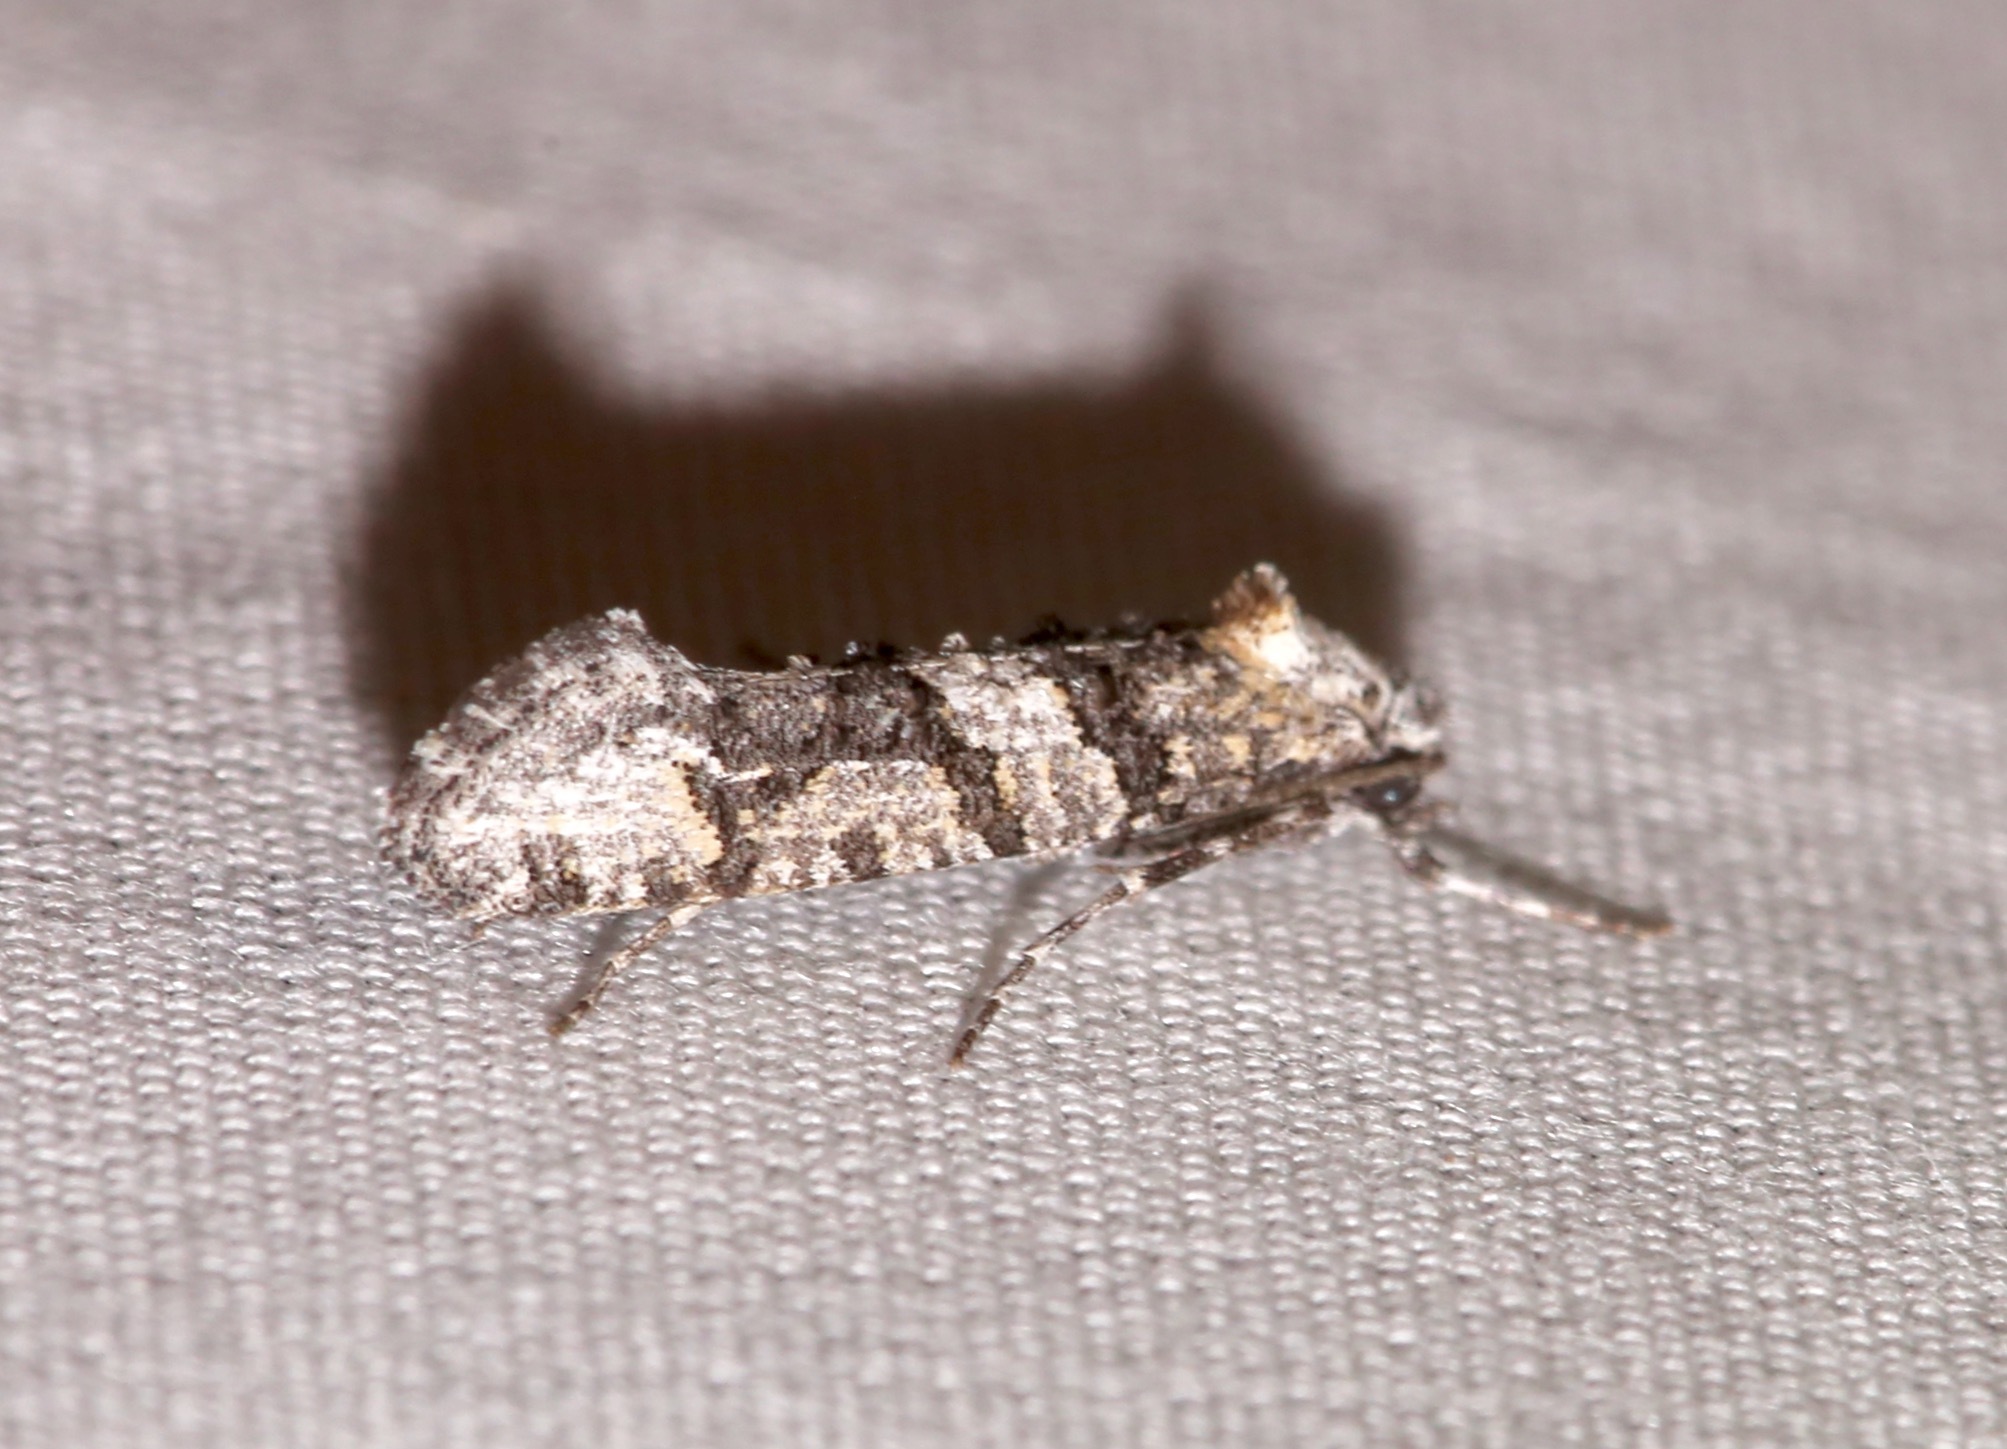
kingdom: Animalia
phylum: Arthropoda
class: Insecta
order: Lepidoptera
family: Tineidae
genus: Dyotopasta
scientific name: Dyotopasta yumaella
